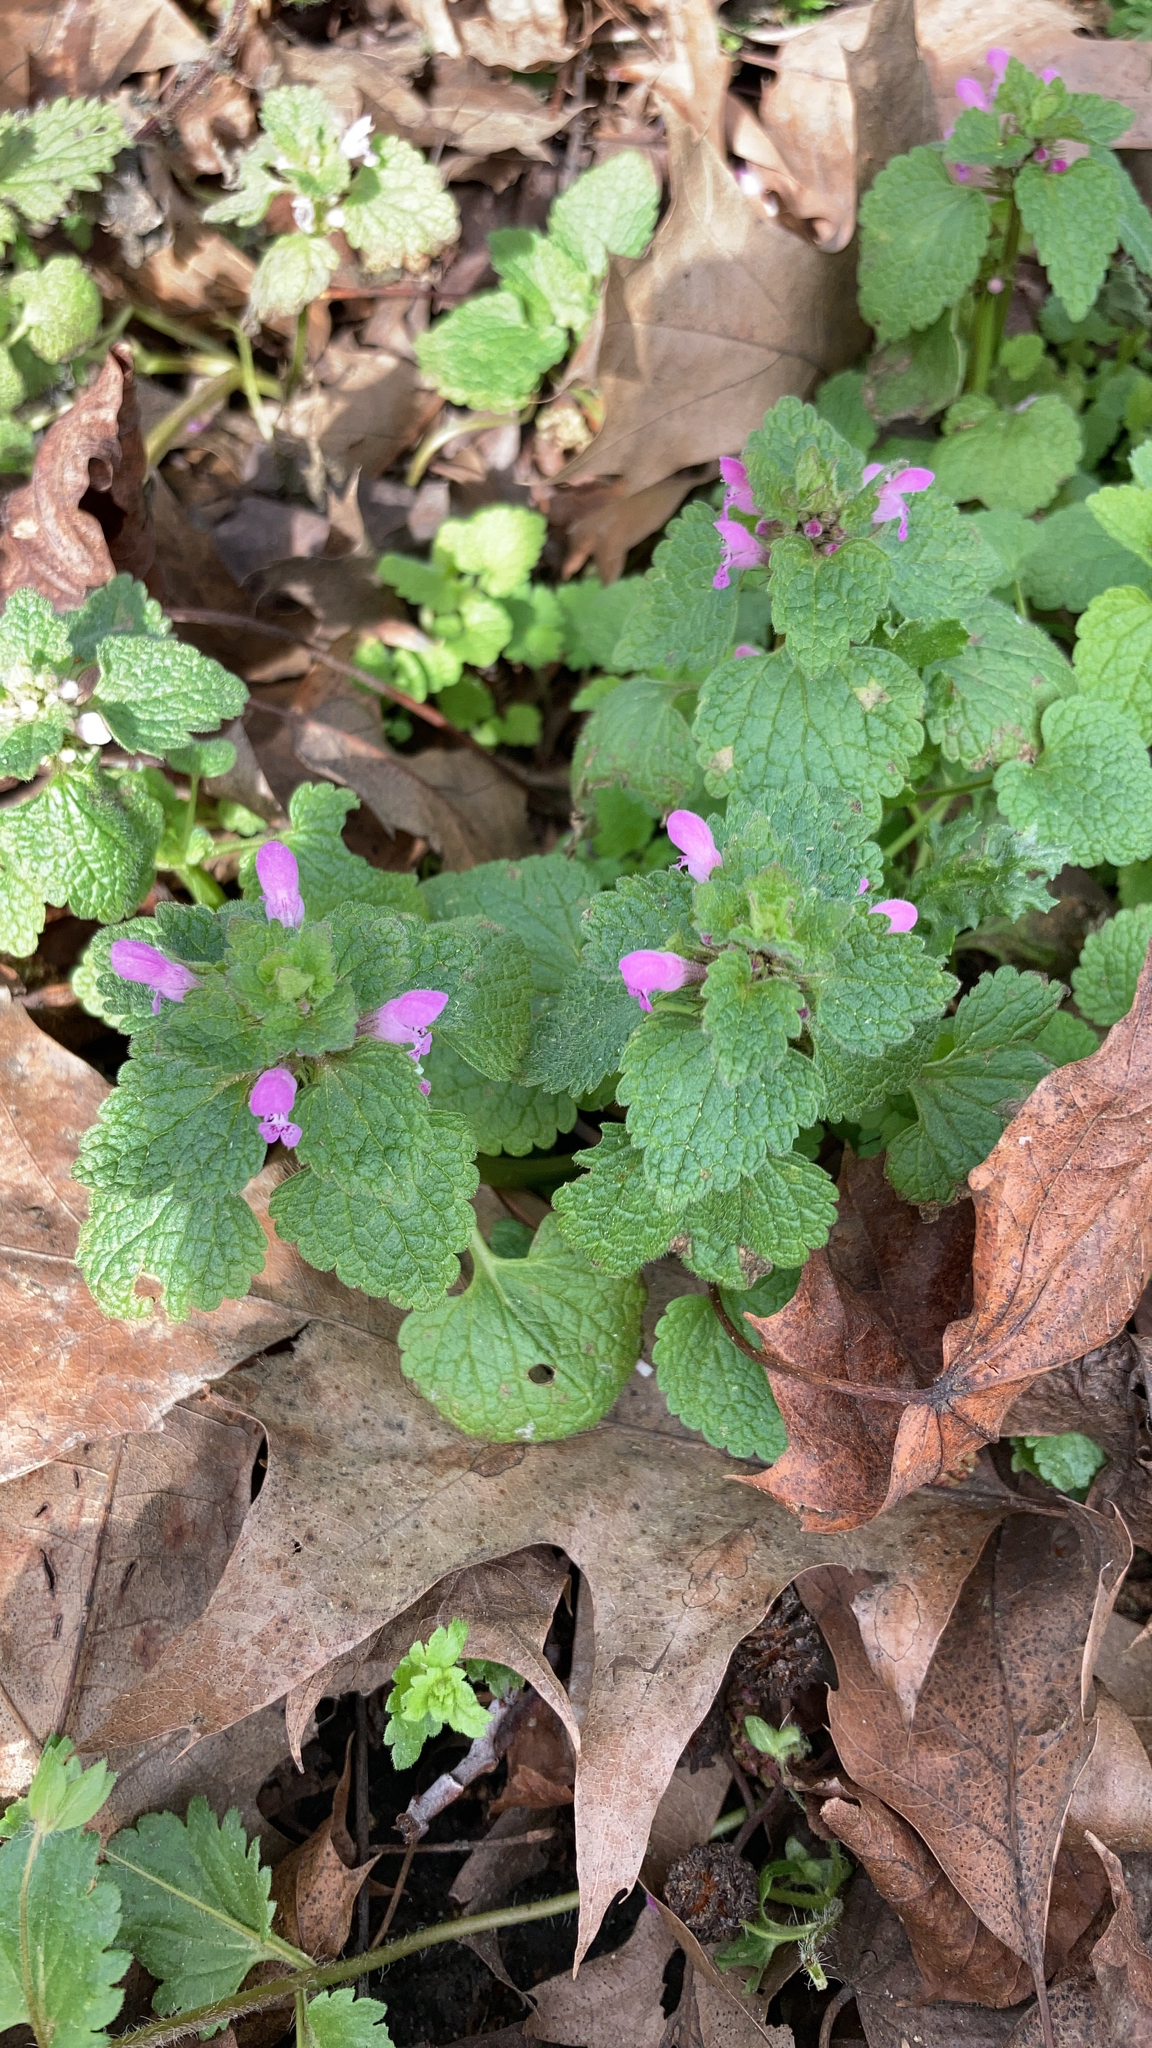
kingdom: Plantae
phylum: Tracheophyta
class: Magnoliopsida
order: Lamiales
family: Lamiaceae
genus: Lamium
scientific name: Lamium purpureum
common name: Red dead-nettle
